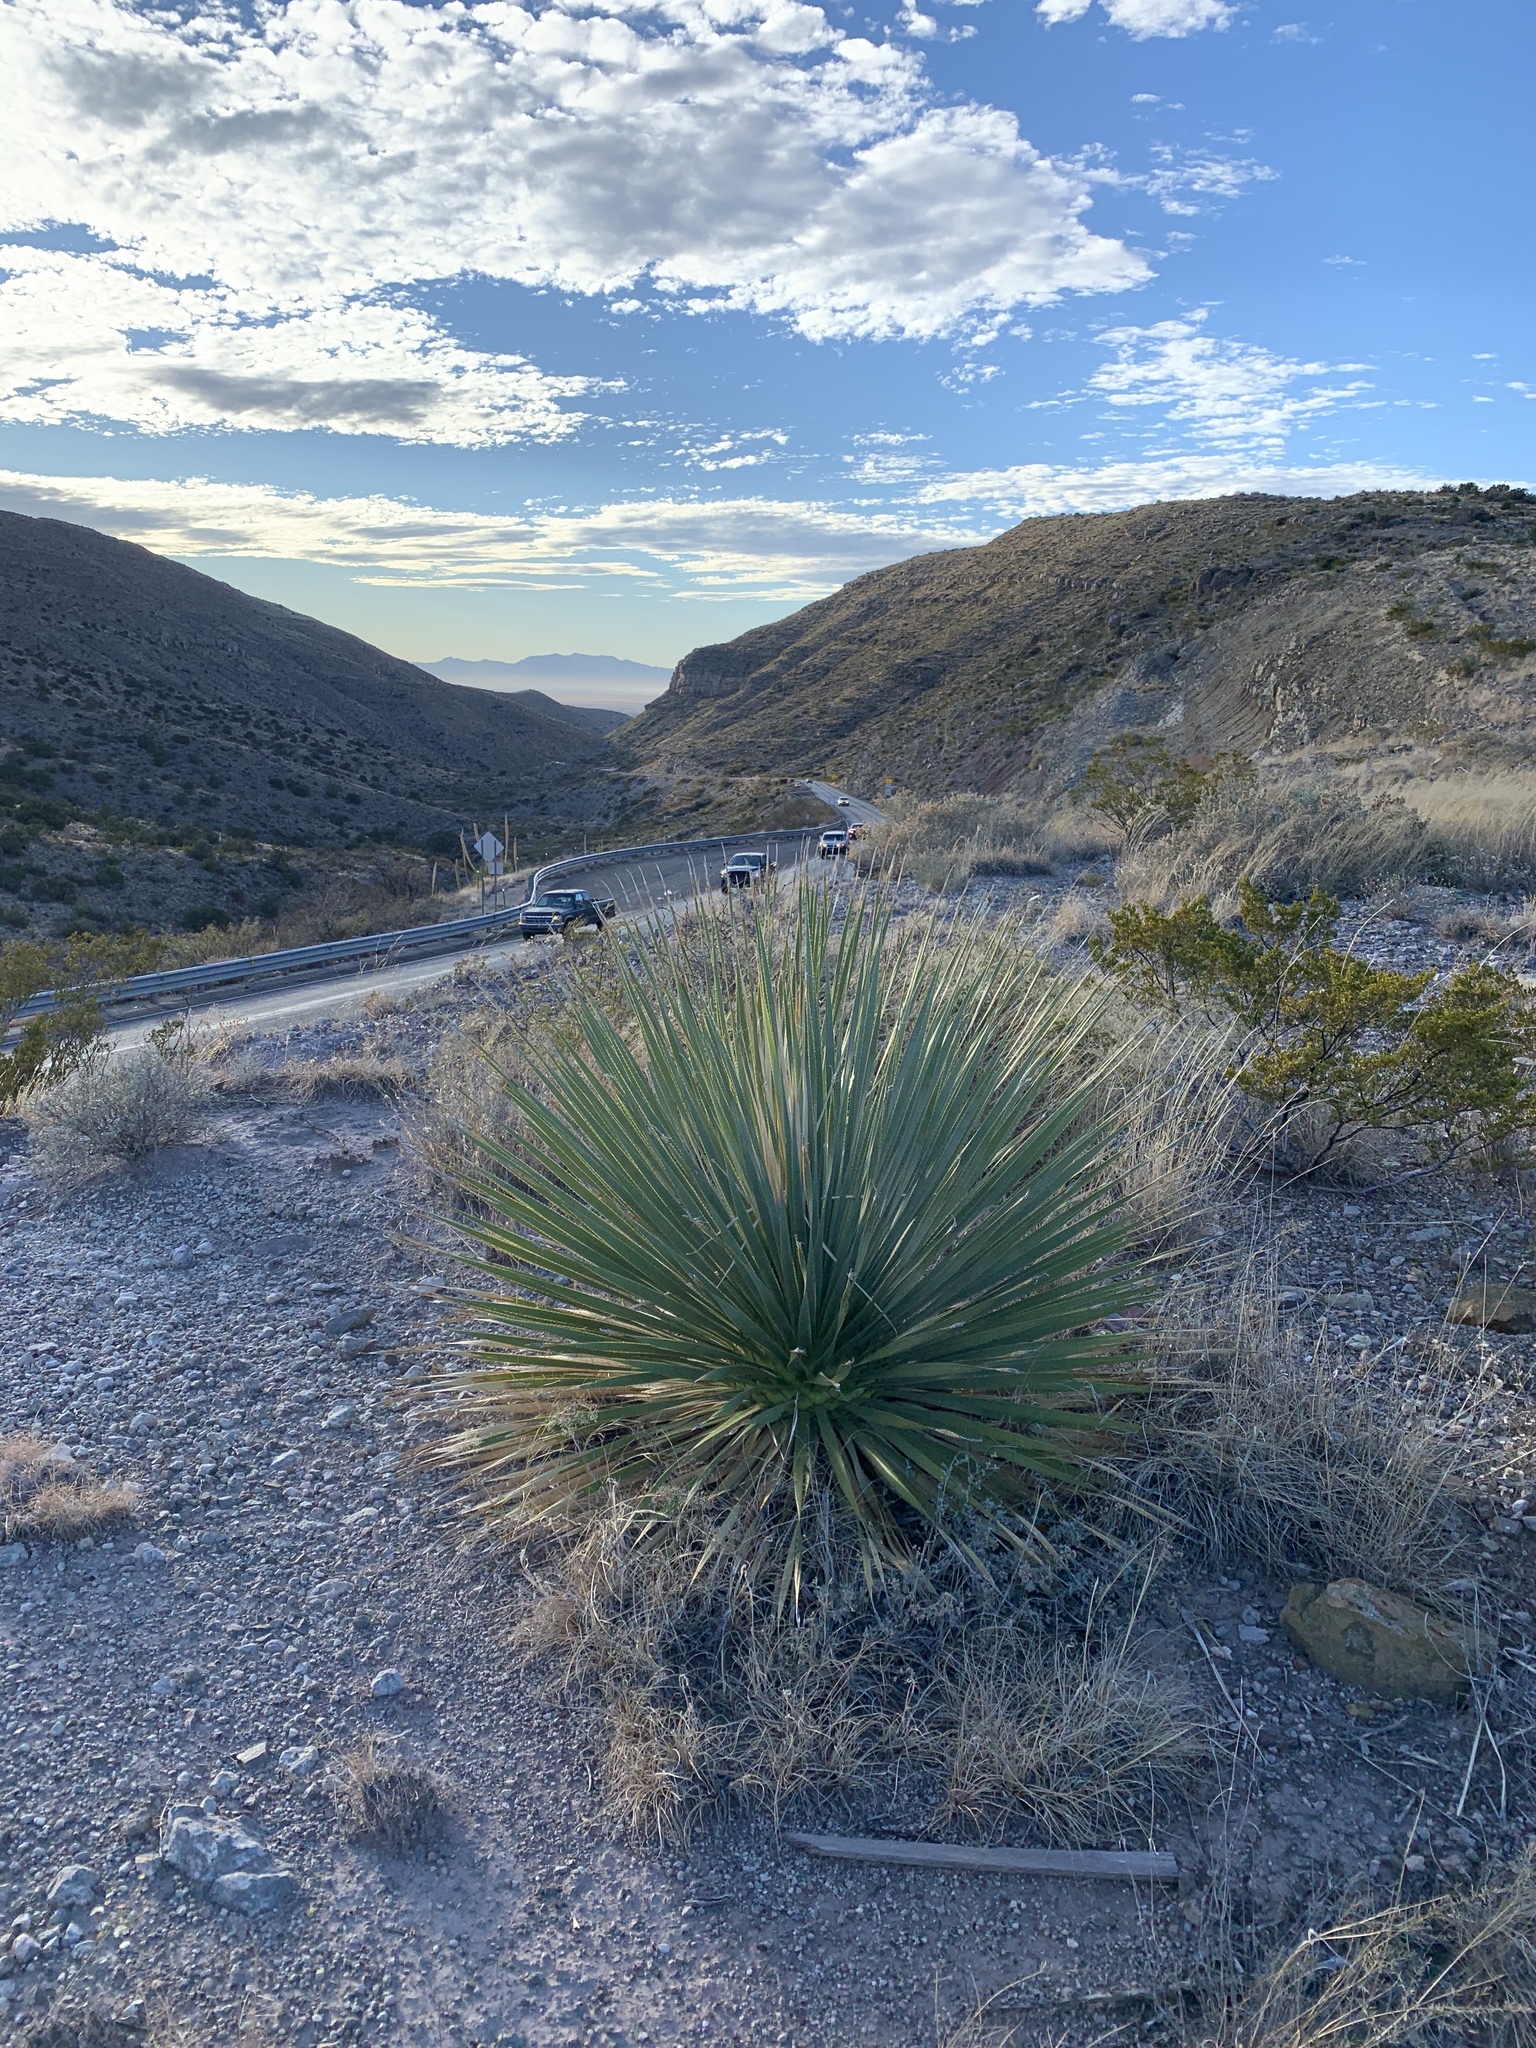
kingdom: Plantae
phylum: Tracheophyta
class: Liliopsida
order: Asparagales
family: Asparagaceae
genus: Dasylirion
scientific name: Dasylirion wheeleri
